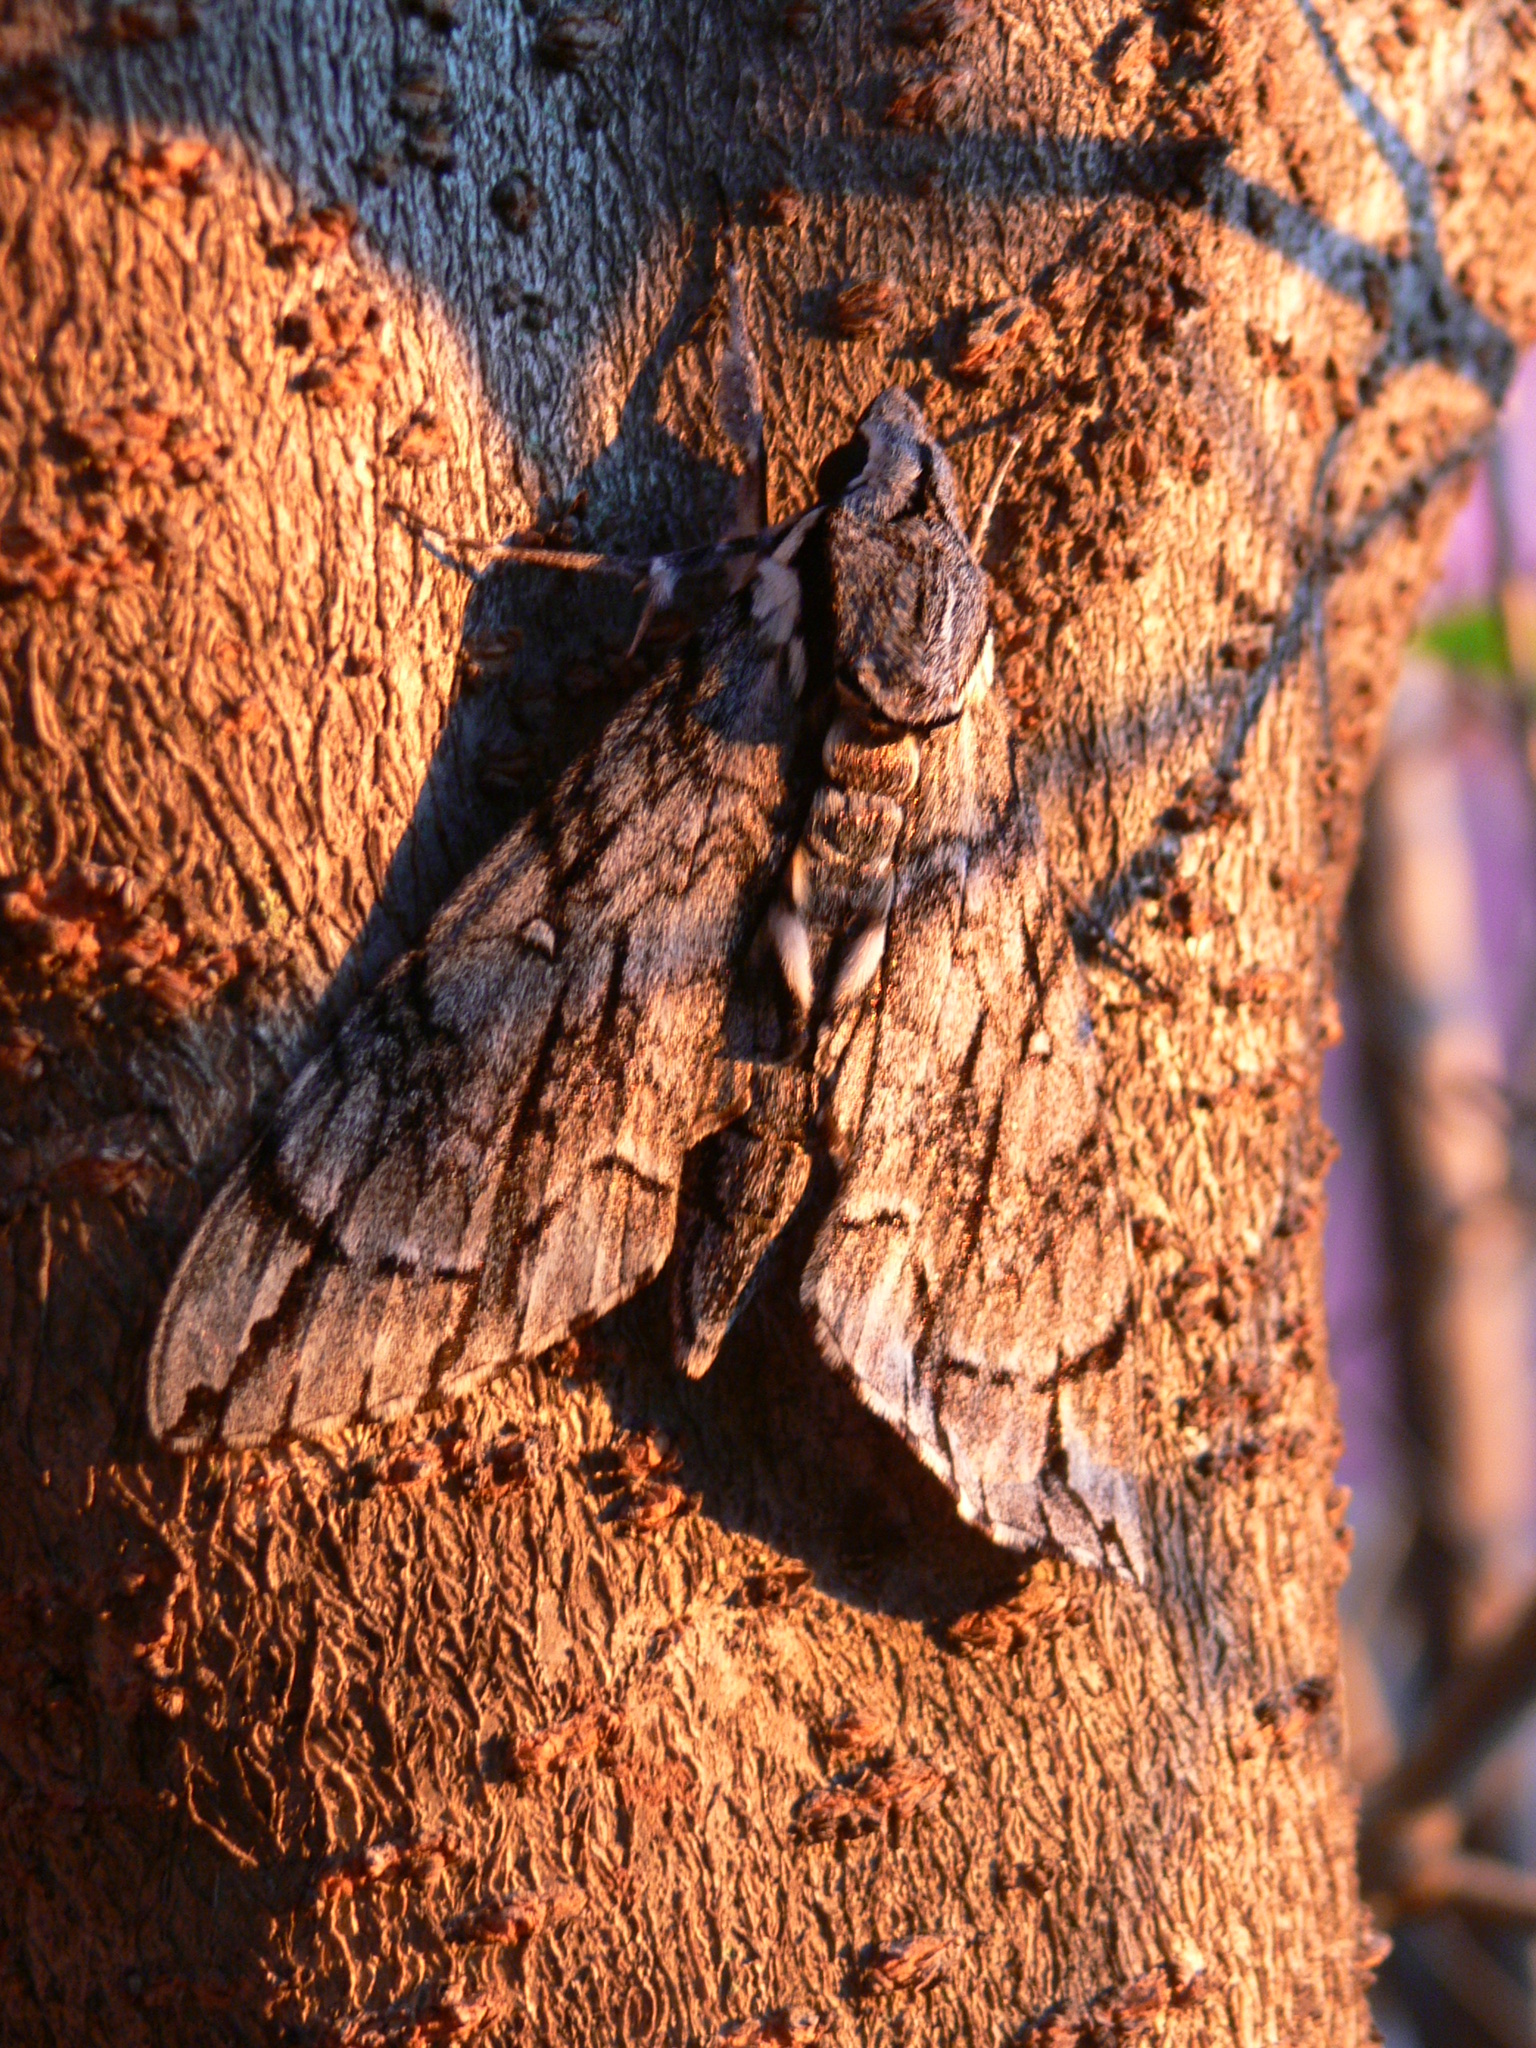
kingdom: Animalia
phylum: Arthropoda
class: Insecta
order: Lepidoptera
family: Sphingidae
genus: Panogena
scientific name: Panogena jasmini
